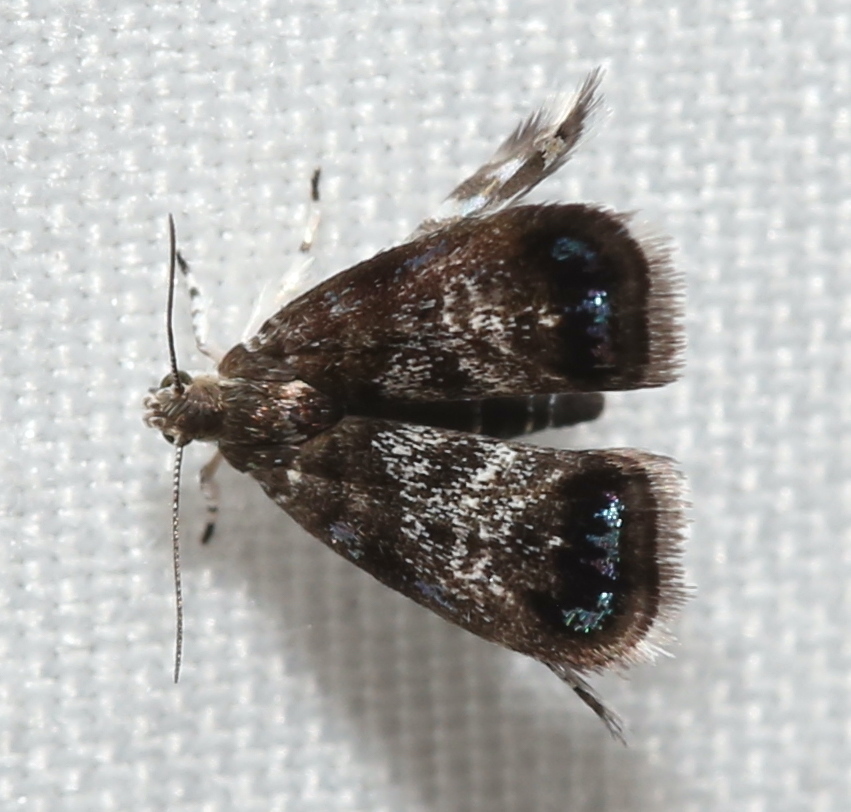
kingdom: Animalia
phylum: Arthropoda
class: Insecta
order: Lepidoptera
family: Choreutidae
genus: Brenthia
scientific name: Brenthia pavonacella
